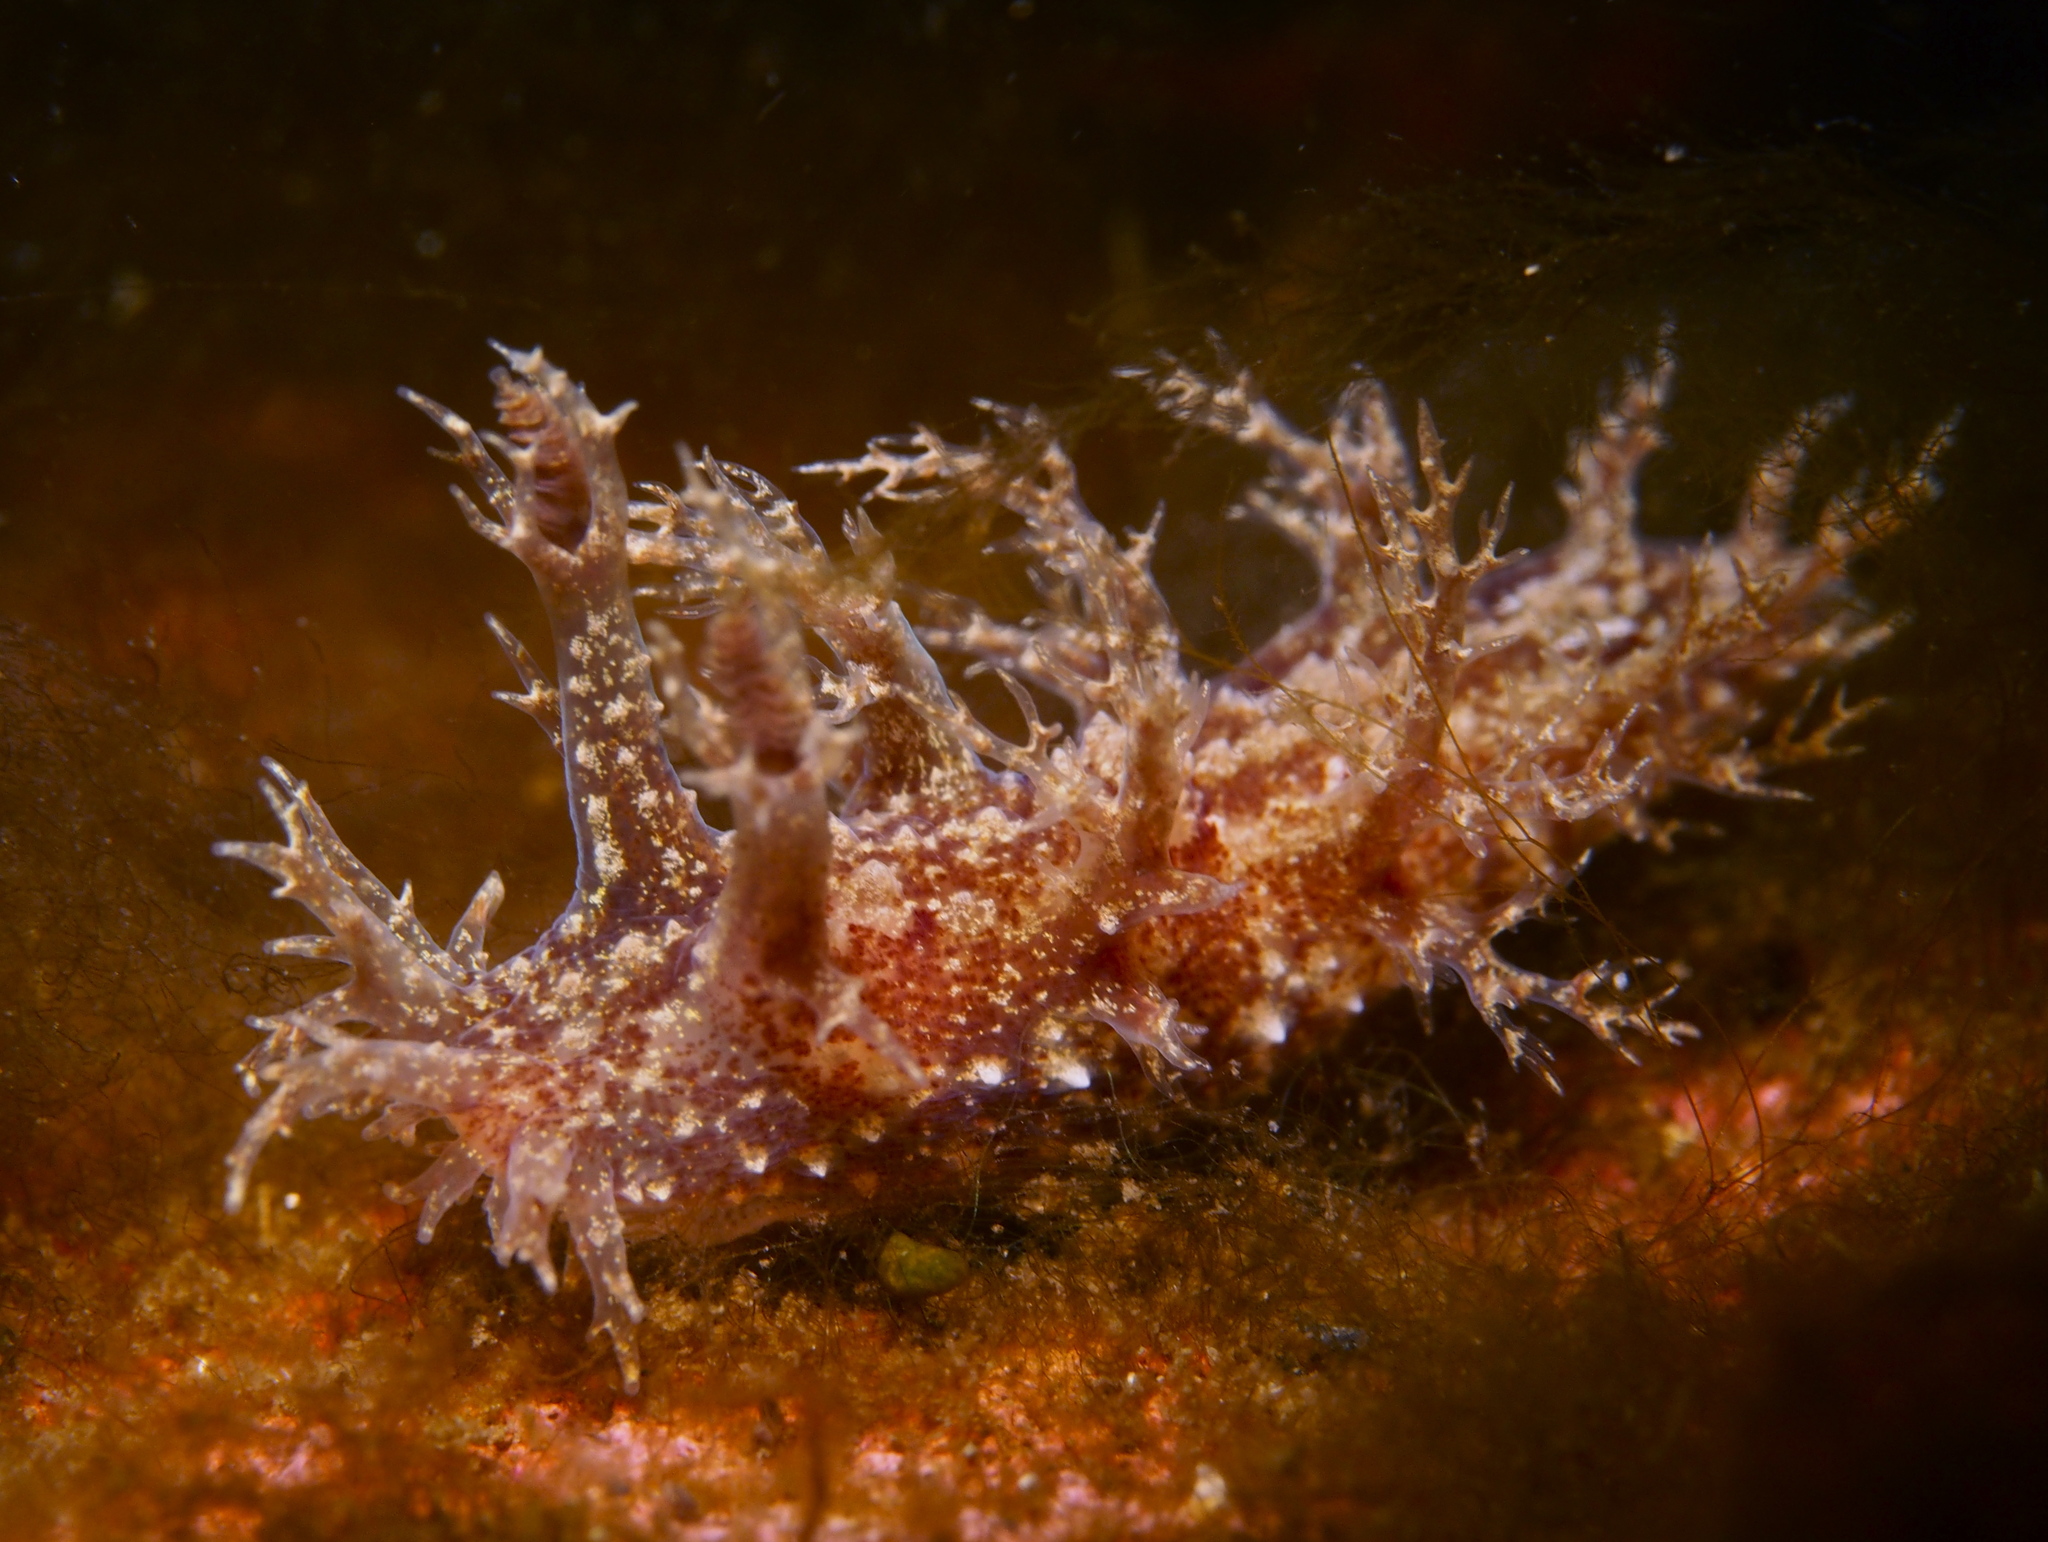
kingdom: Animalia
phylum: Mollusca
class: Gastropoda
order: Nudibranchia
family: Dendronotidae
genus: Dendronotus
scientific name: Dendronotus frondosus
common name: Bushy-backed nudibranch
